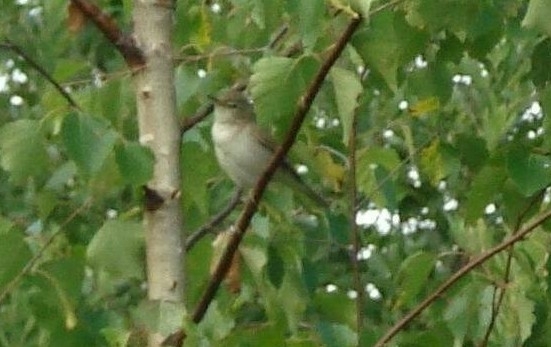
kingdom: Animalia
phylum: Chordata
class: Aves
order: Passeriformes
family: Acrocephalidae
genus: Acrocephalus
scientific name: Acrocephalus dumetorum
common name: Blyth's reed warbler
